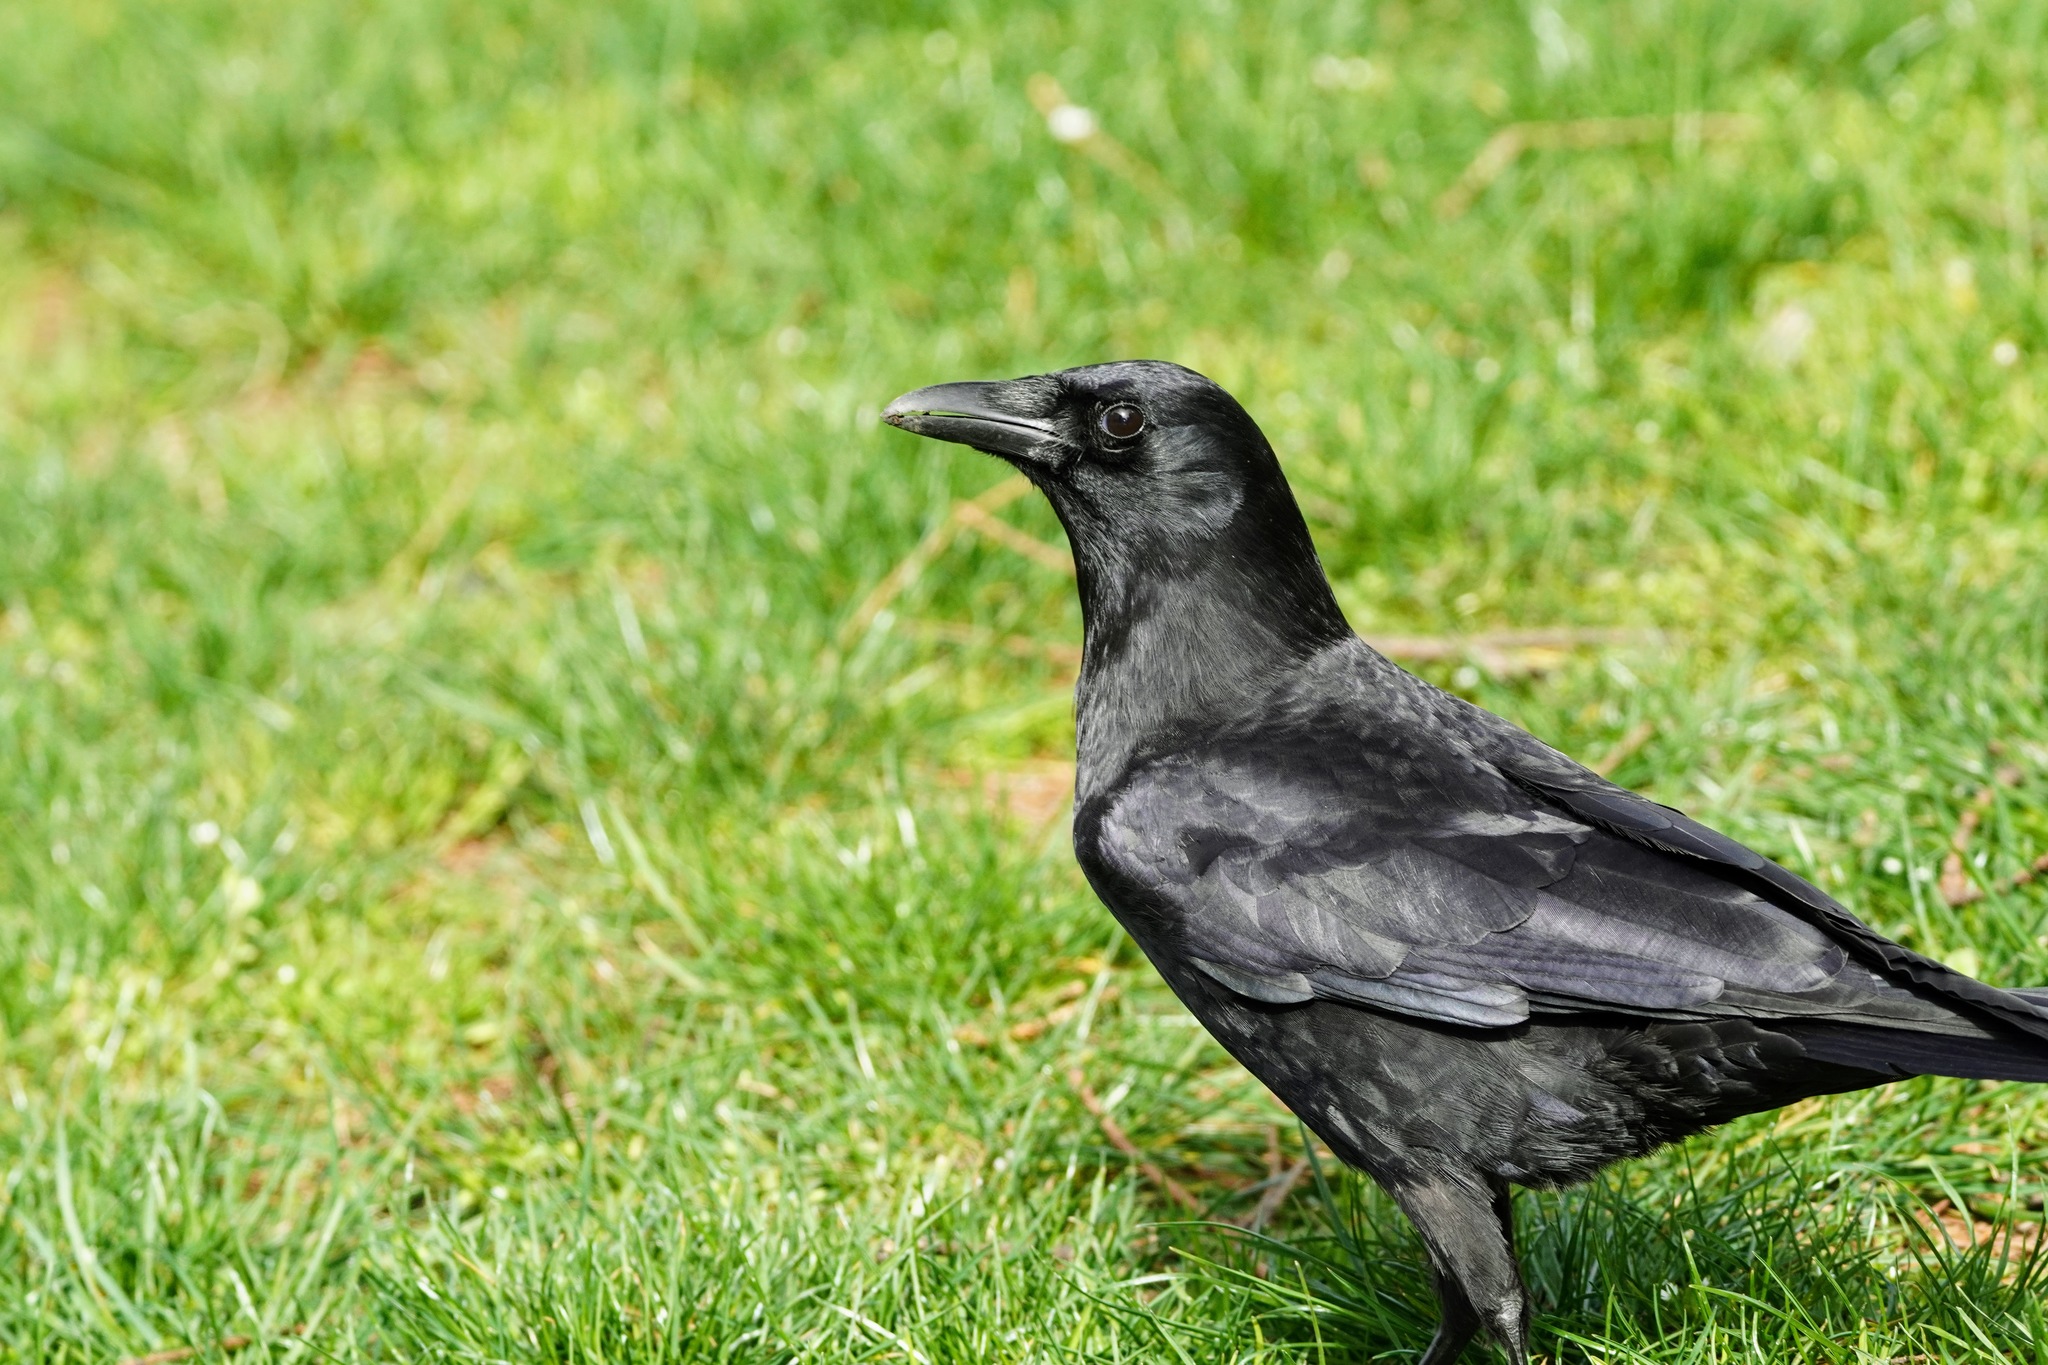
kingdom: Animalia
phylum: Chordata
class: Aves
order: Passeriformes
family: Corvidae
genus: Corvus
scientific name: Corvus brachyrhynchos
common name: American crow
